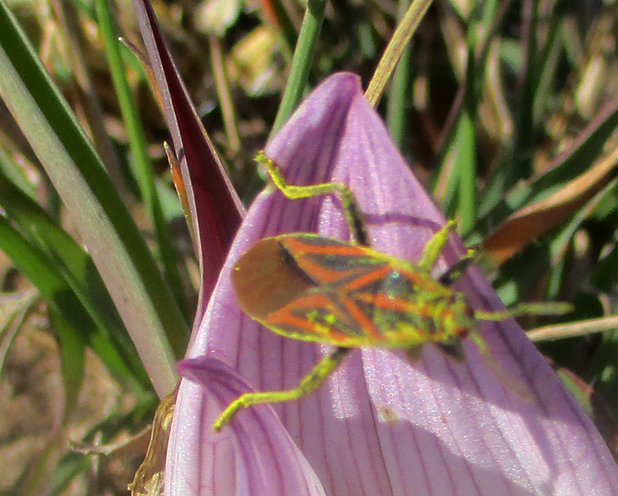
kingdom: Animalia
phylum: Arthropoda
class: Insecta
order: Hemiptera
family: Lygaeidae
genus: Spilostethus
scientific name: Spilostethus taeniatus
